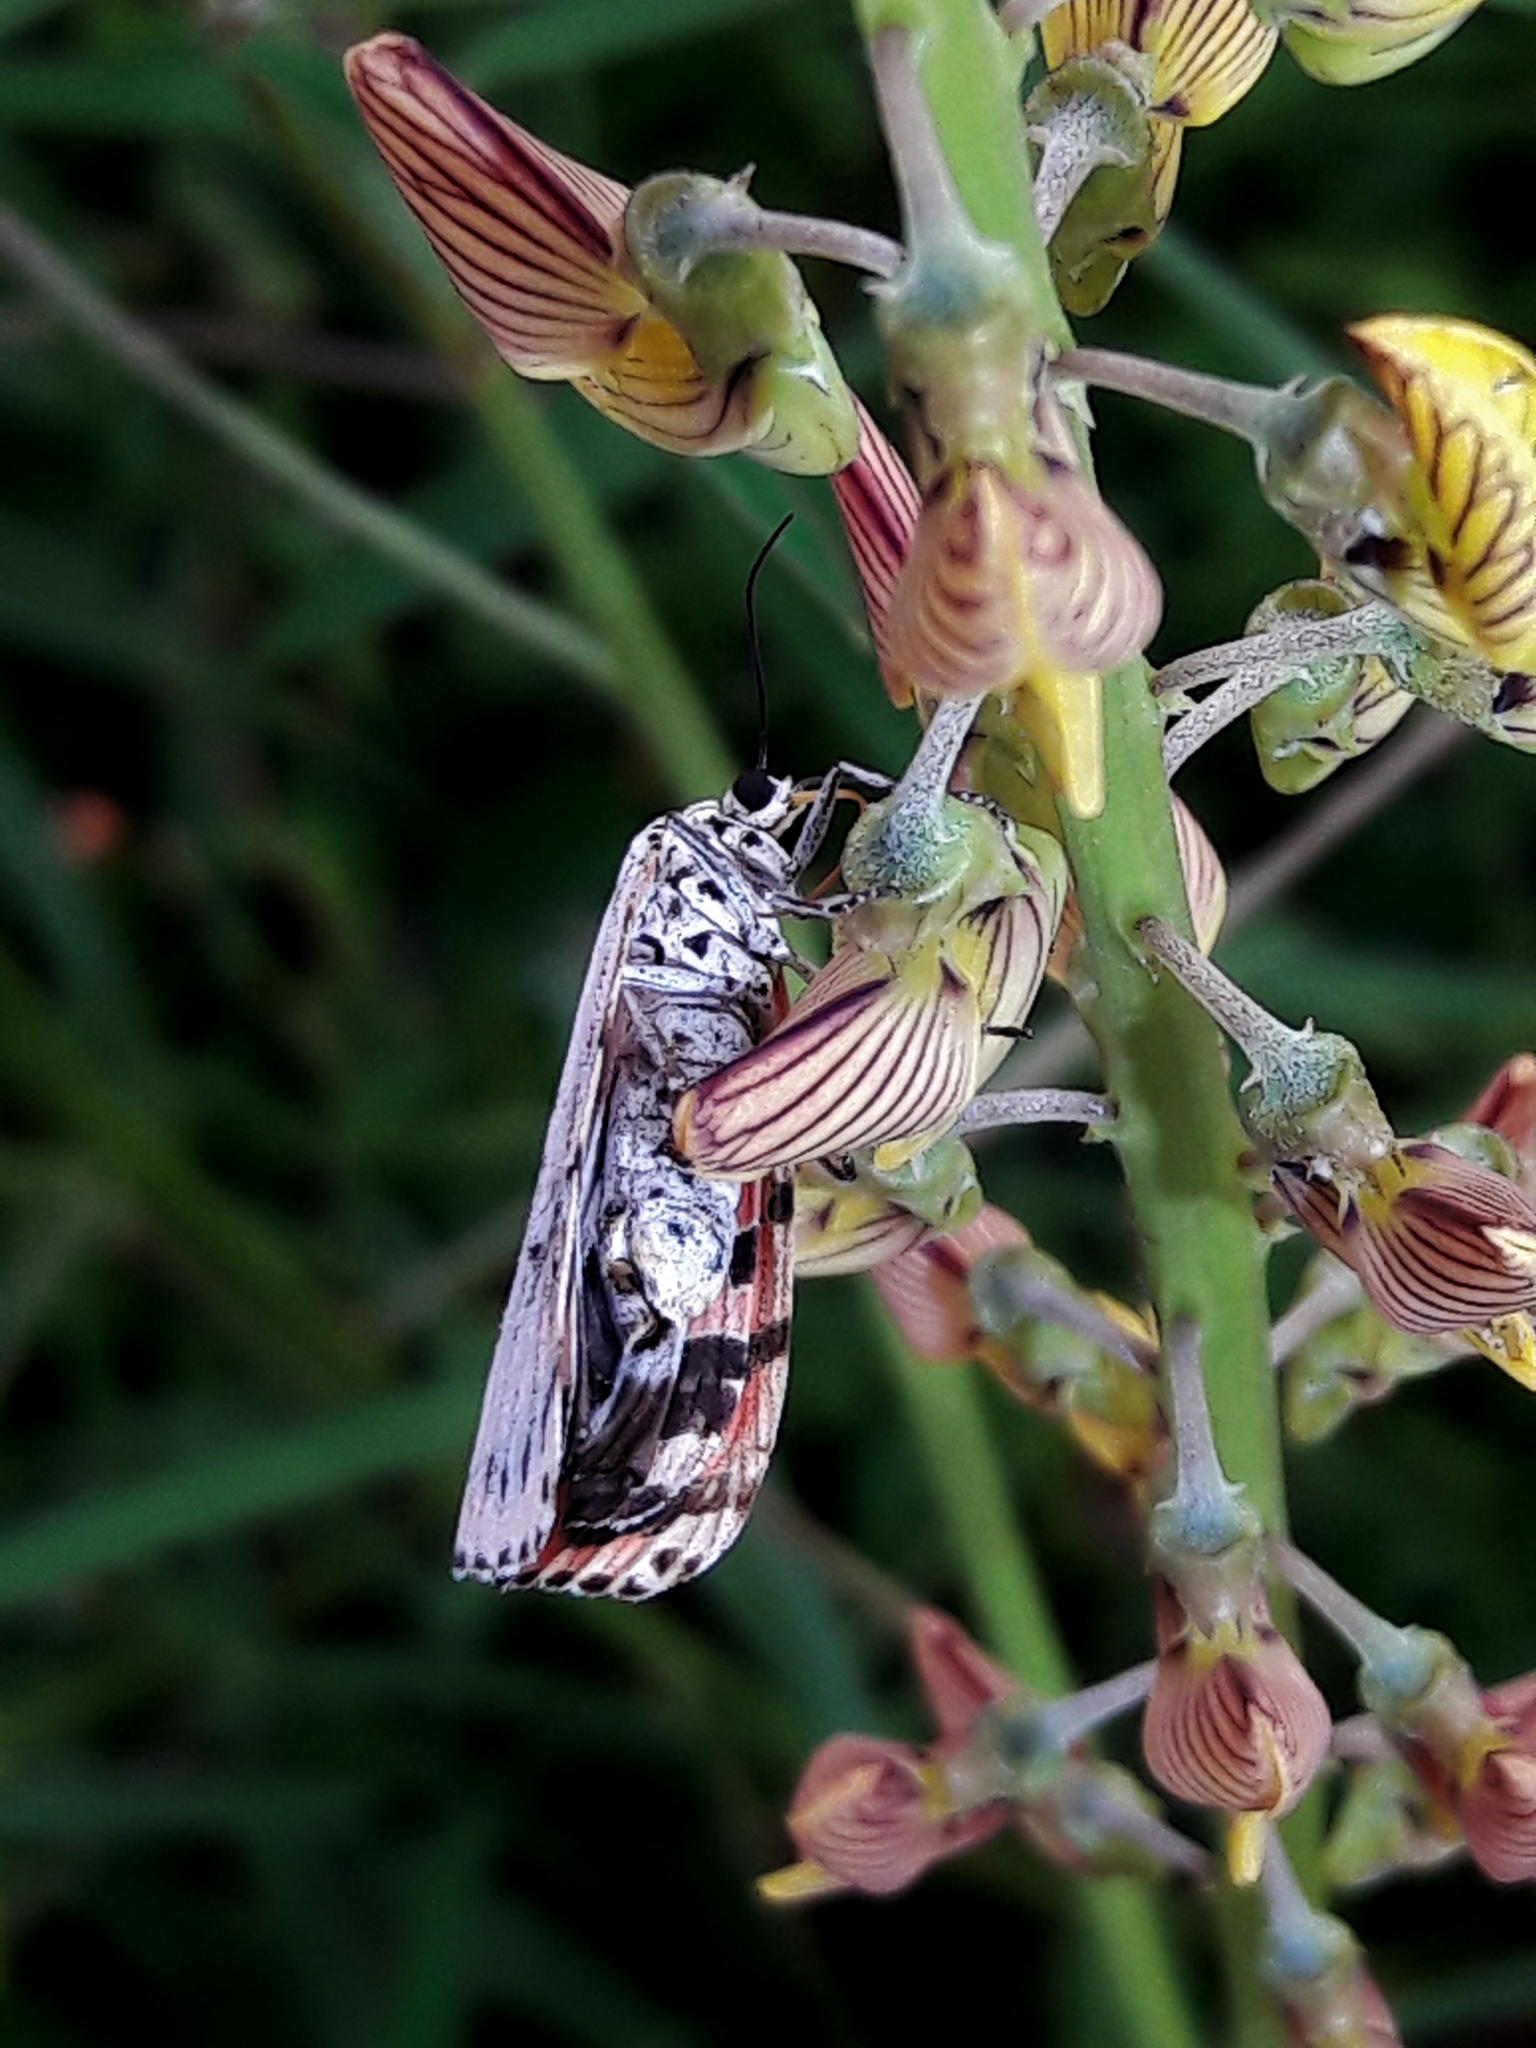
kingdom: Animalia
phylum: Arthropoda
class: Insecta
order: Lepidoptera
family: Erebidae
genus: Utetheisa
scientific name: Utetheisa ornatrix
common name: Beautiful utetheisa
